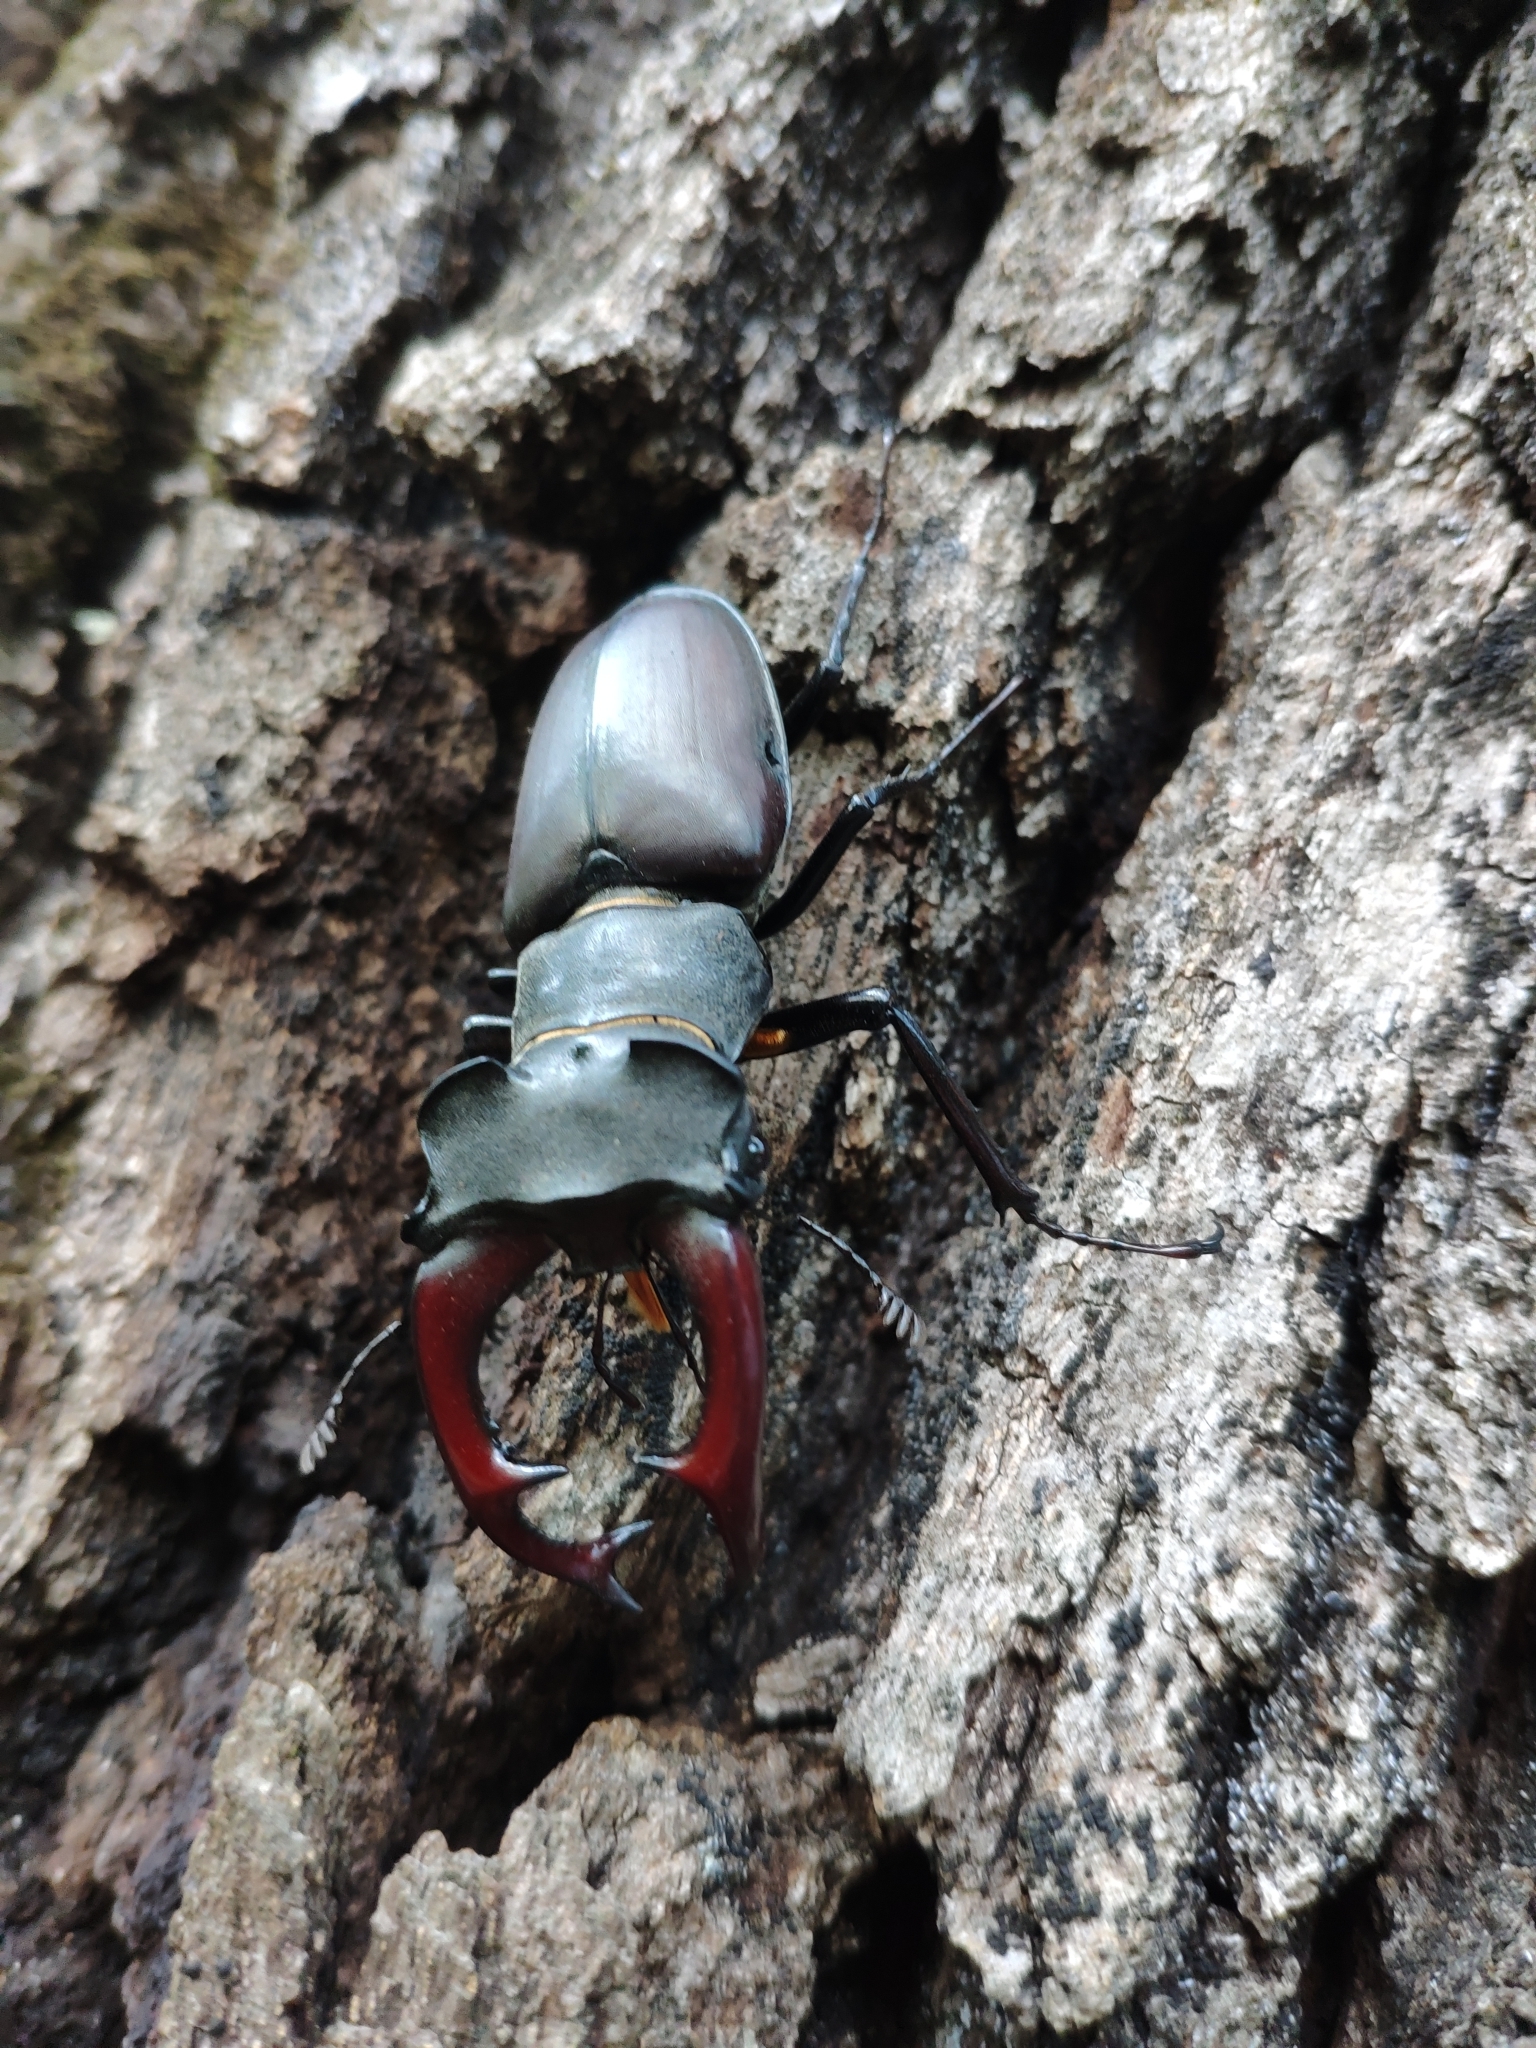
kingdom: Animalia
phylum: Arthropoda
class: Insecta
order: Coleoptera
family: Lucanidae
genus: Lucanus
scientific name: Lucanus cervus
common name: Stag beetle
